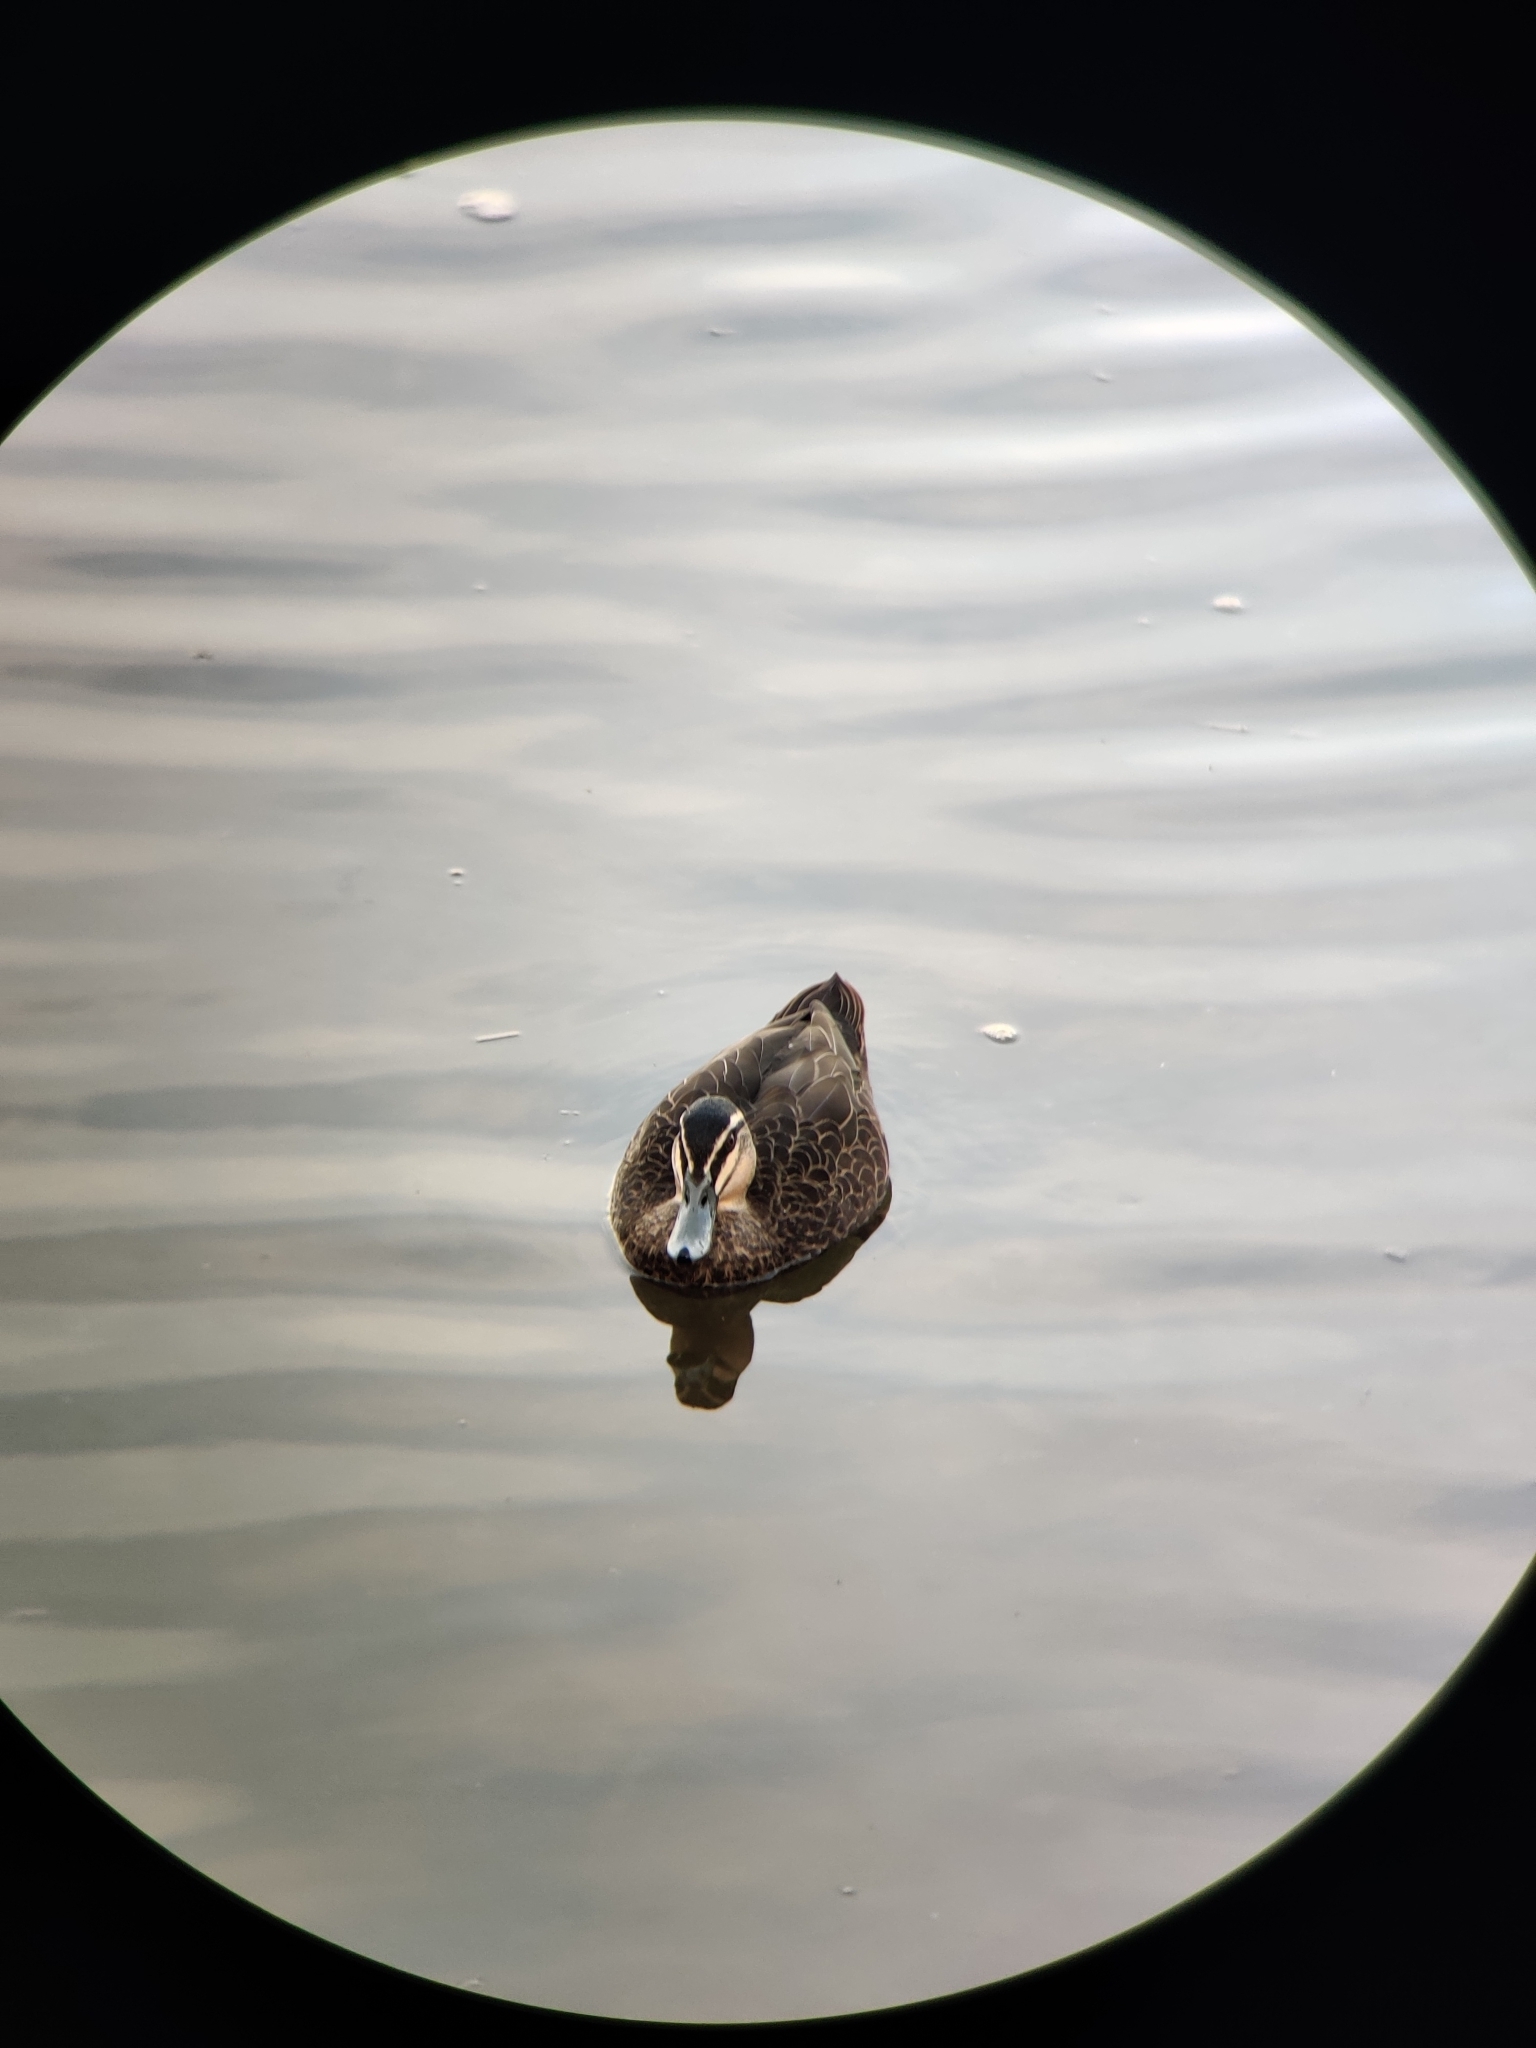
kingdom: Animalia
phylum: Chordata
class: Aves
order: Anseriformes
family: Anatidae
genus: Anas
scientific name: Anas superciliosa
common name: Pacific black duck
